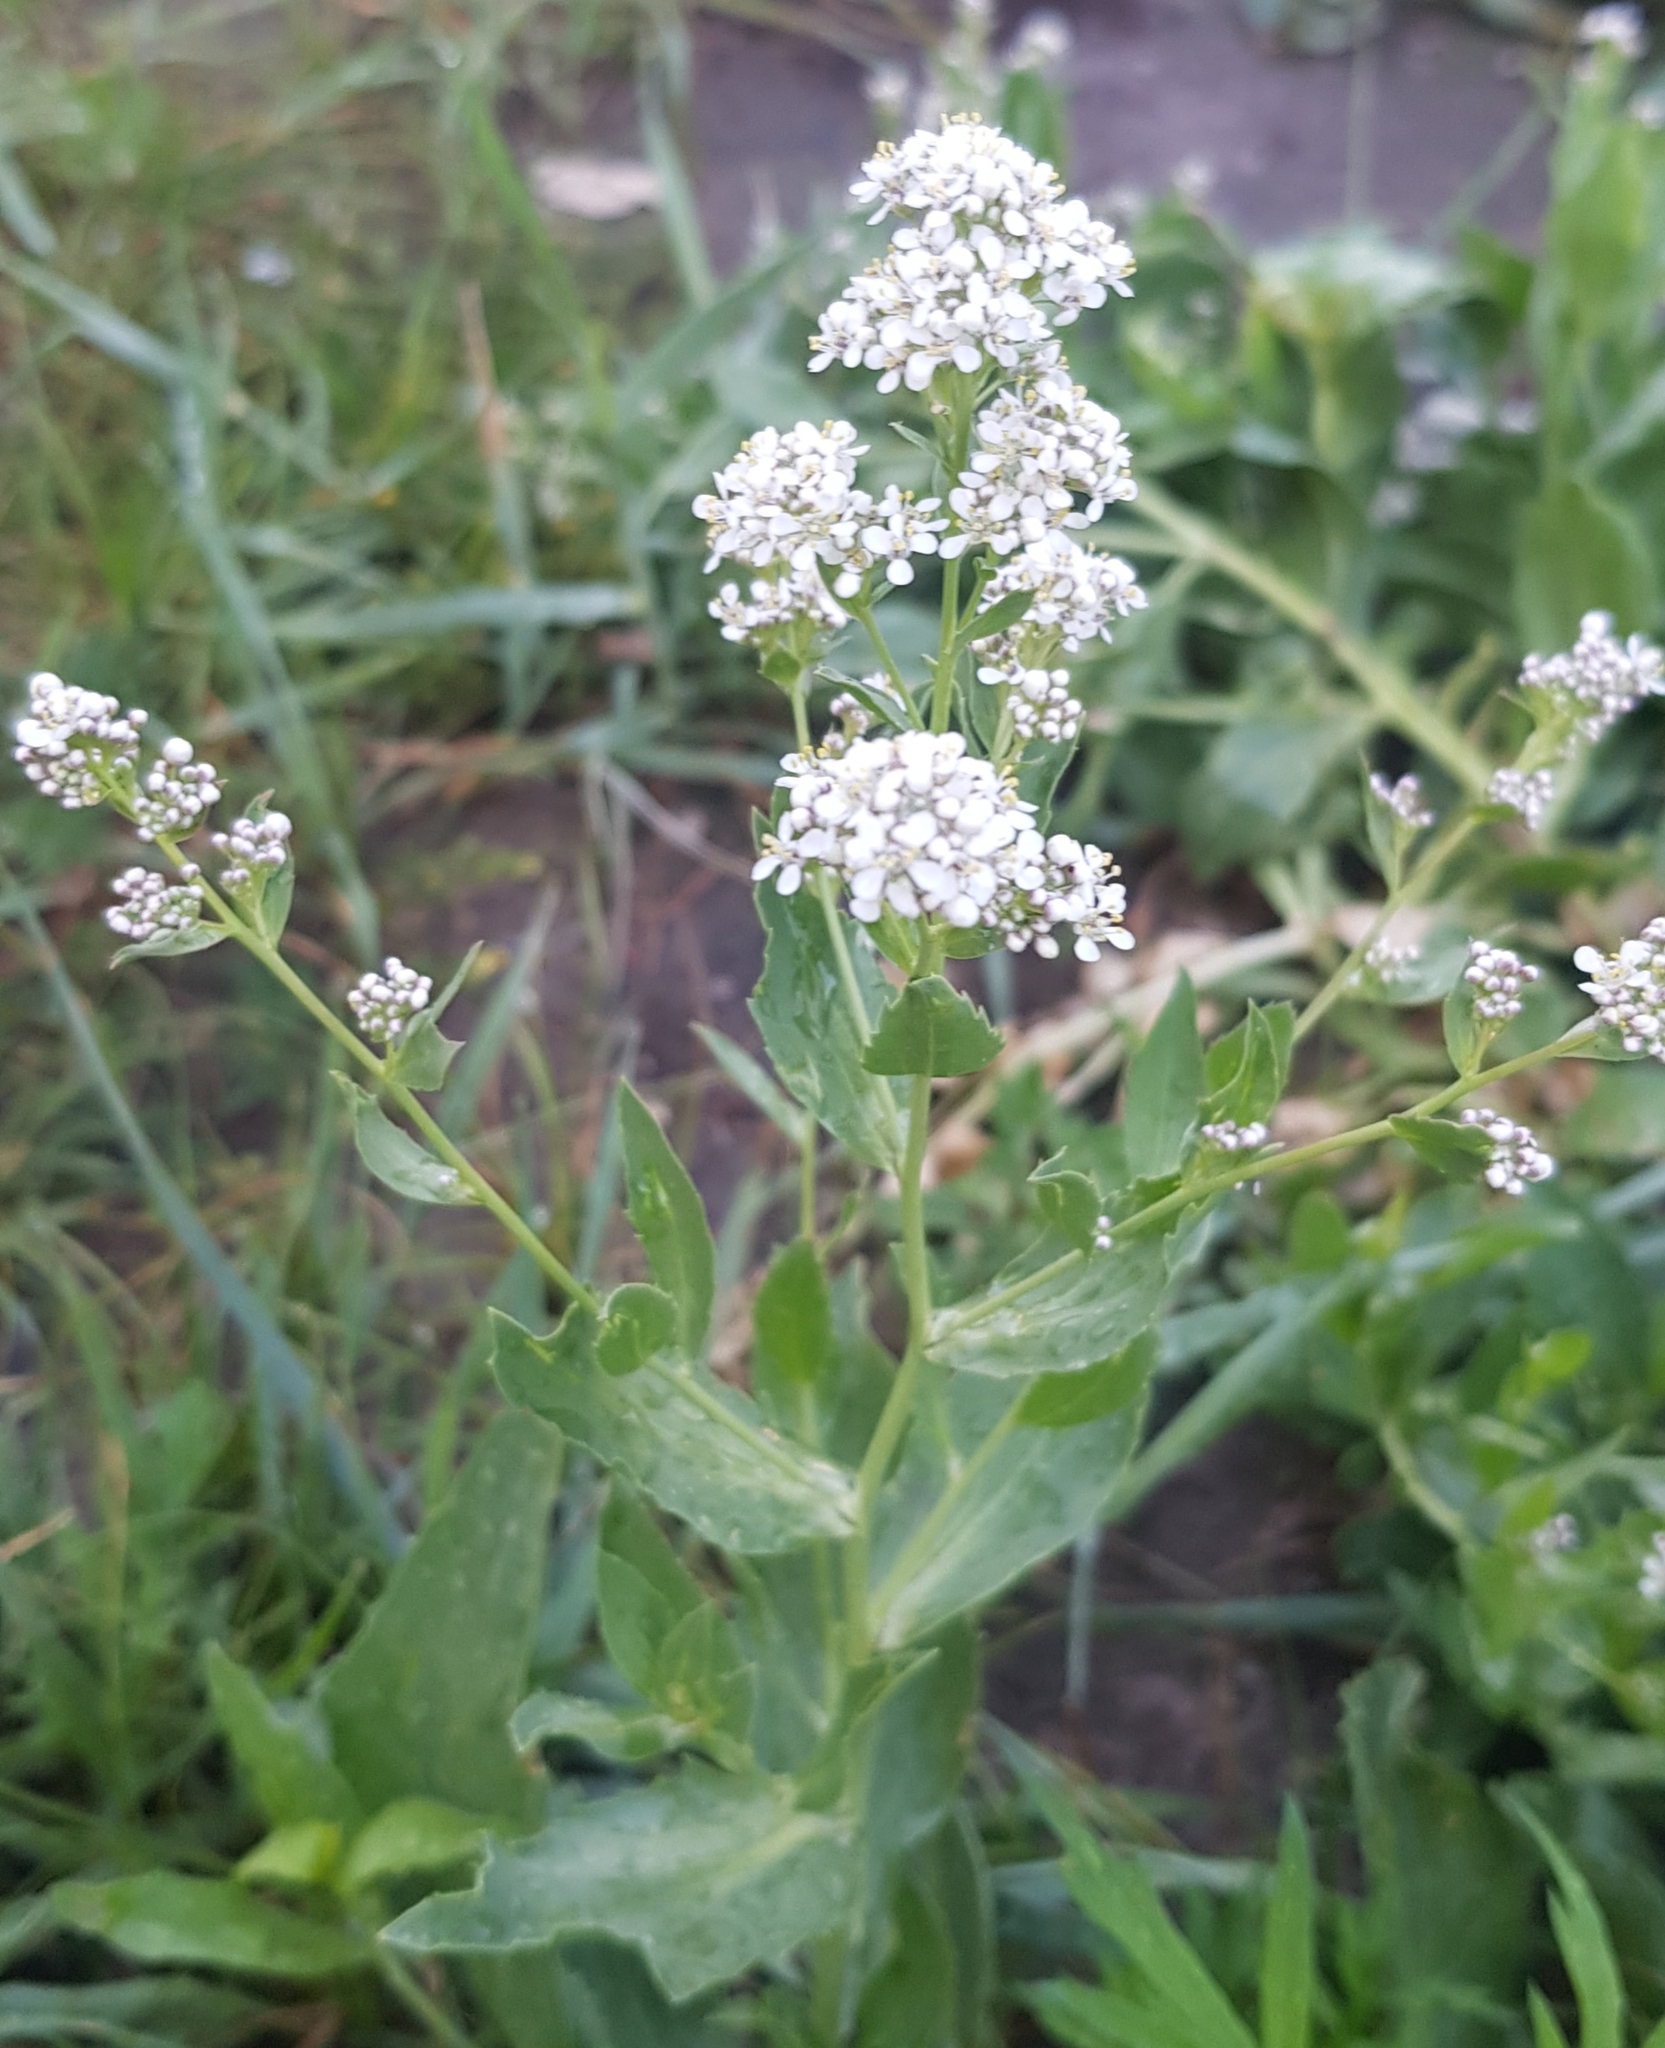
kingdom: Plantae
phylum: Tracheophyta
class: Magnoliopsida
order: Brassicales
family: Brassicaceae
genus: Lepidium
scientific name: Lepidium latifolium
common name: Dittander
